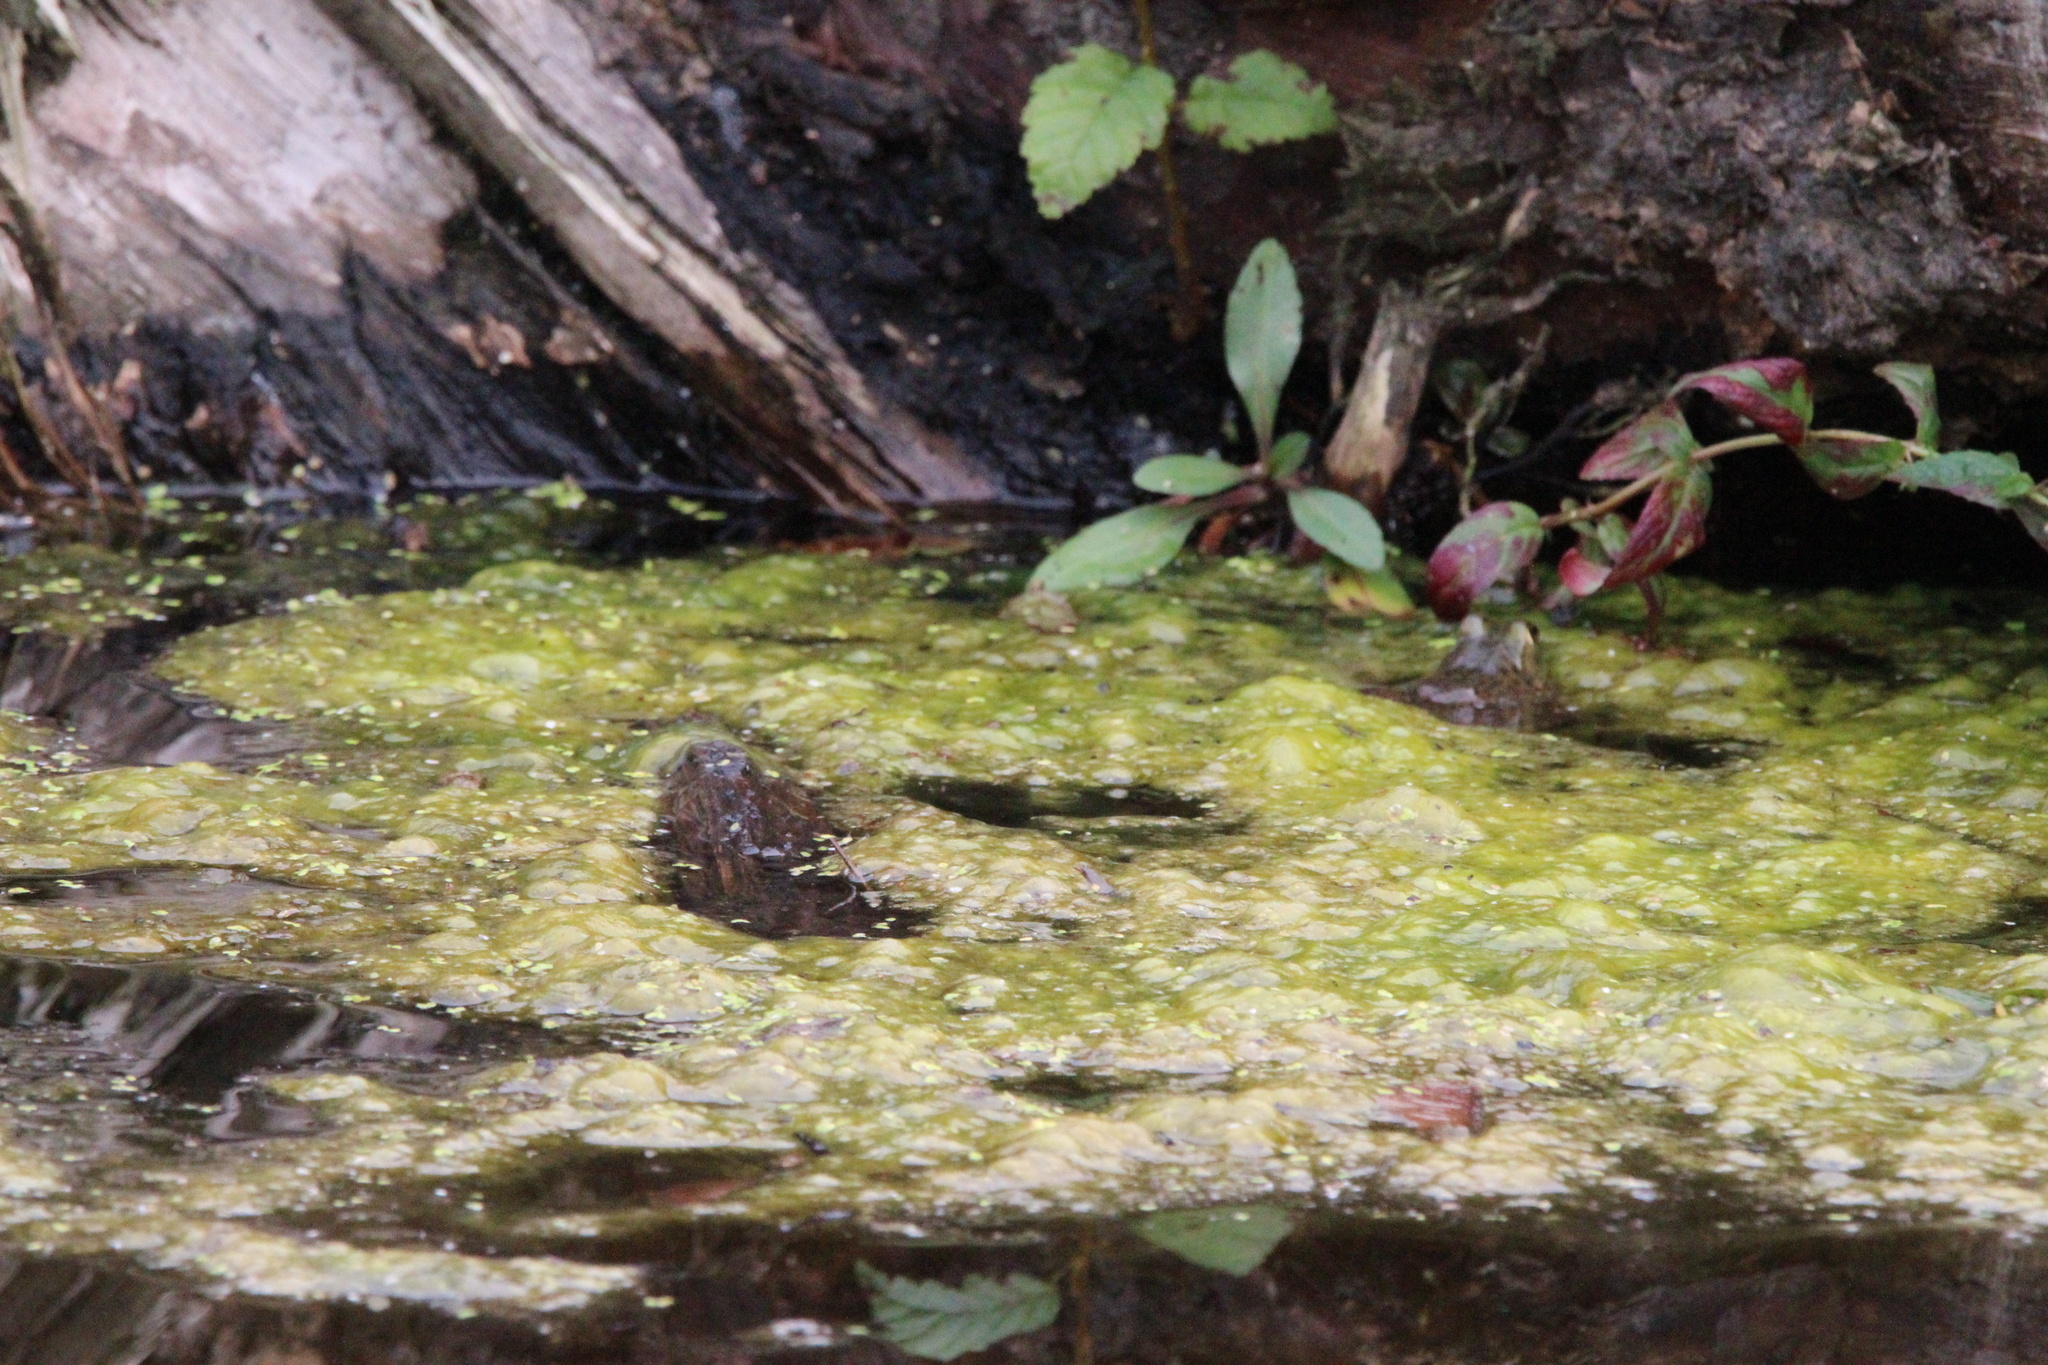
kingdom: Animalia
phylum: Chordata
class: Amphibia
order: Anura
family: Ranidae
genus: Lithobates
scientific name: Lithobates catesbeianus
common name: American bullfrog
